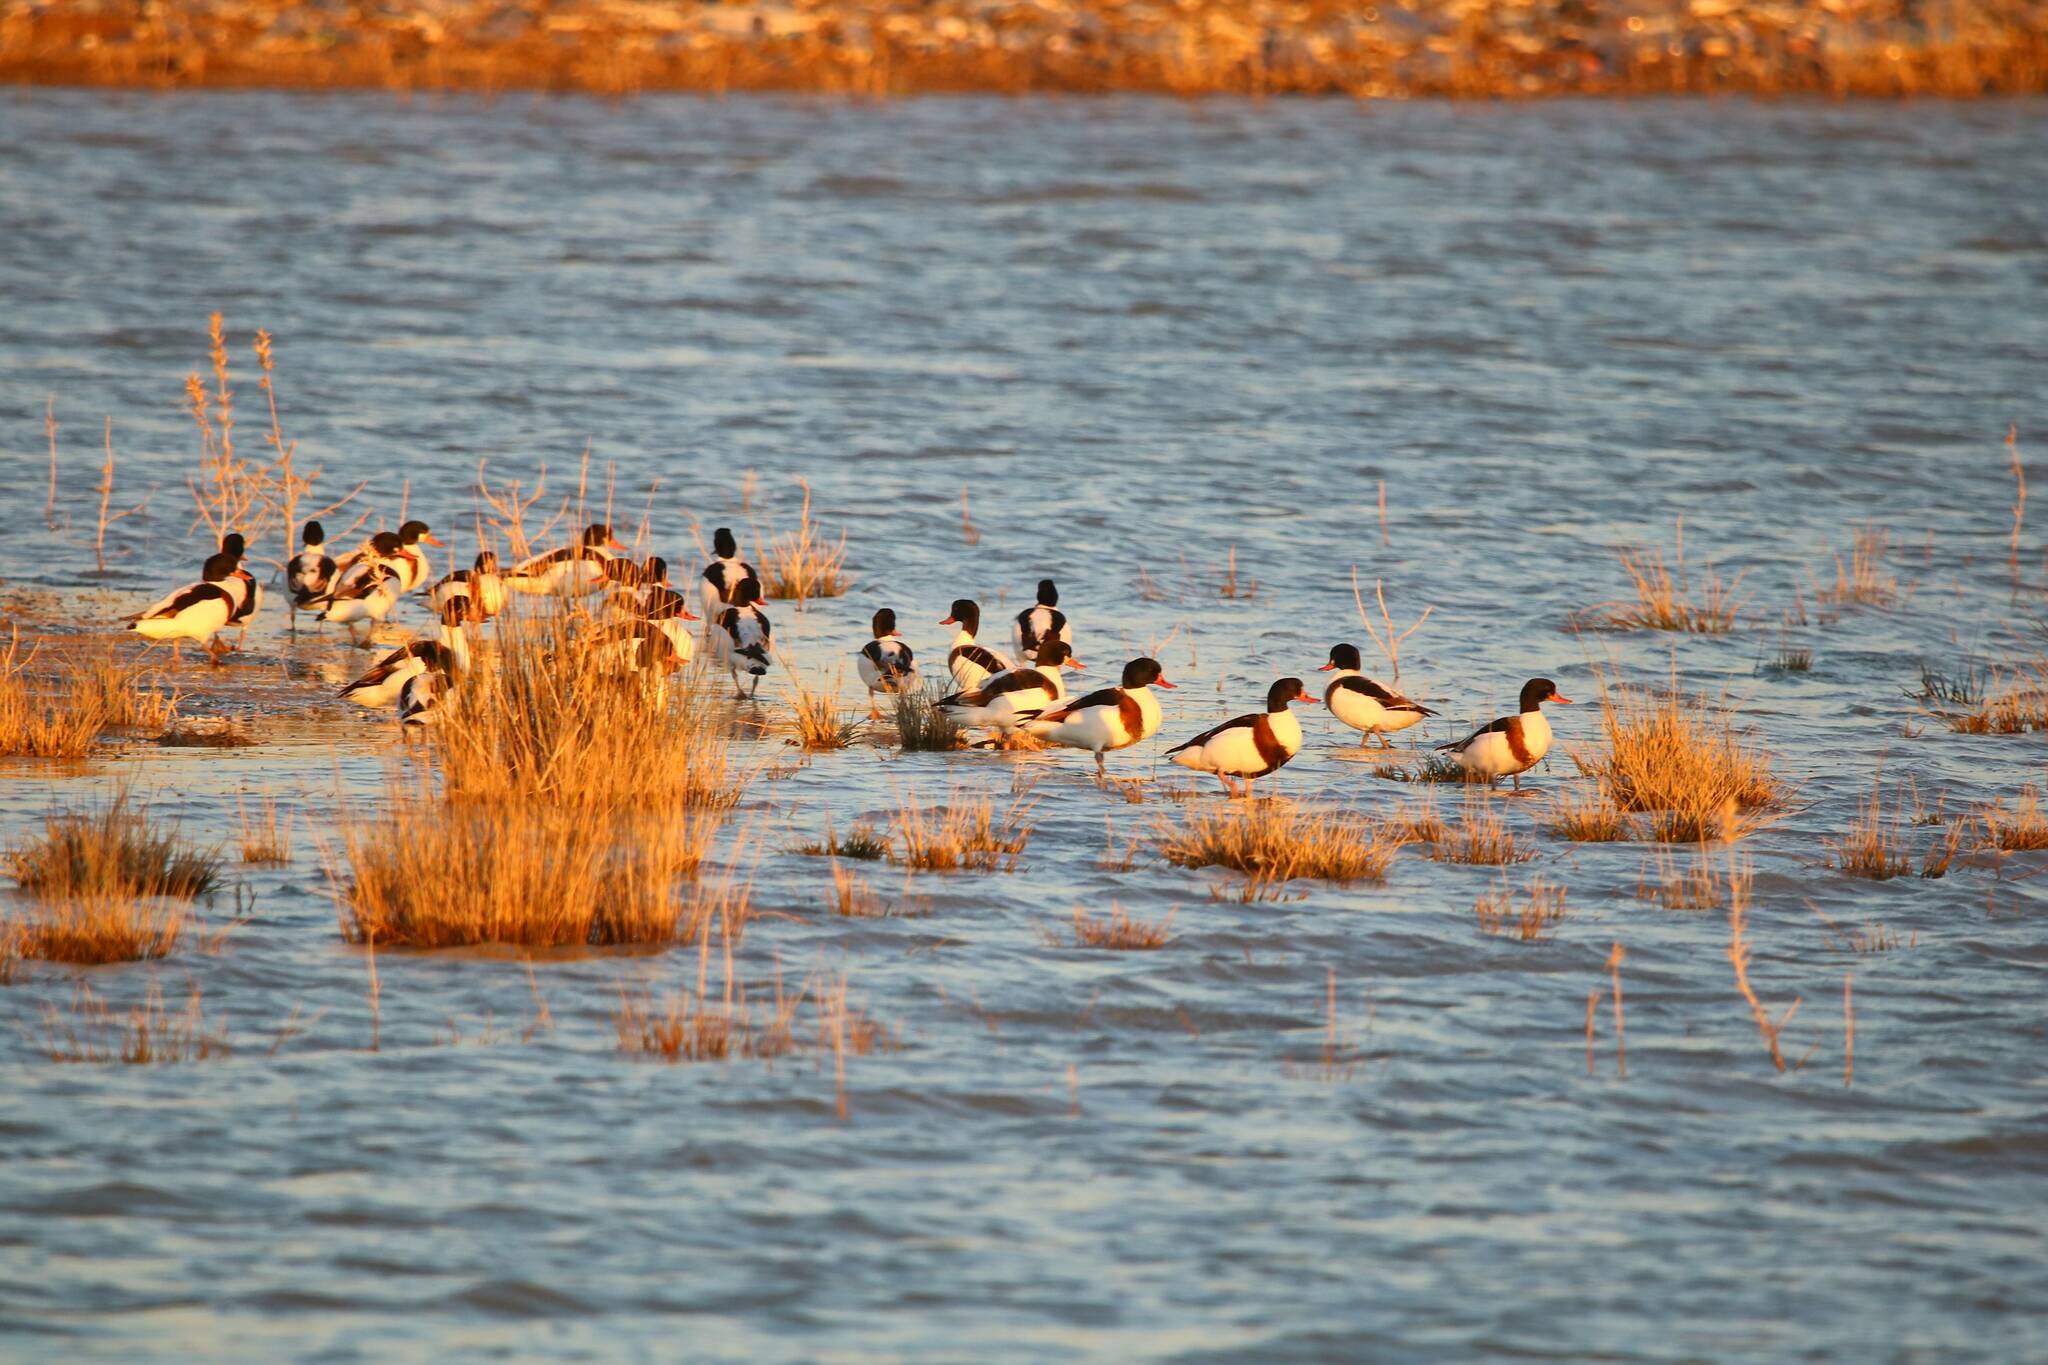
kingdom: Animalia
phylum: Chordata
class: Aves
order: Anseriformes
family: Anatidae
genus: Tadorna
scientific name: Tadorna tadorna
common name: Common shelduck
